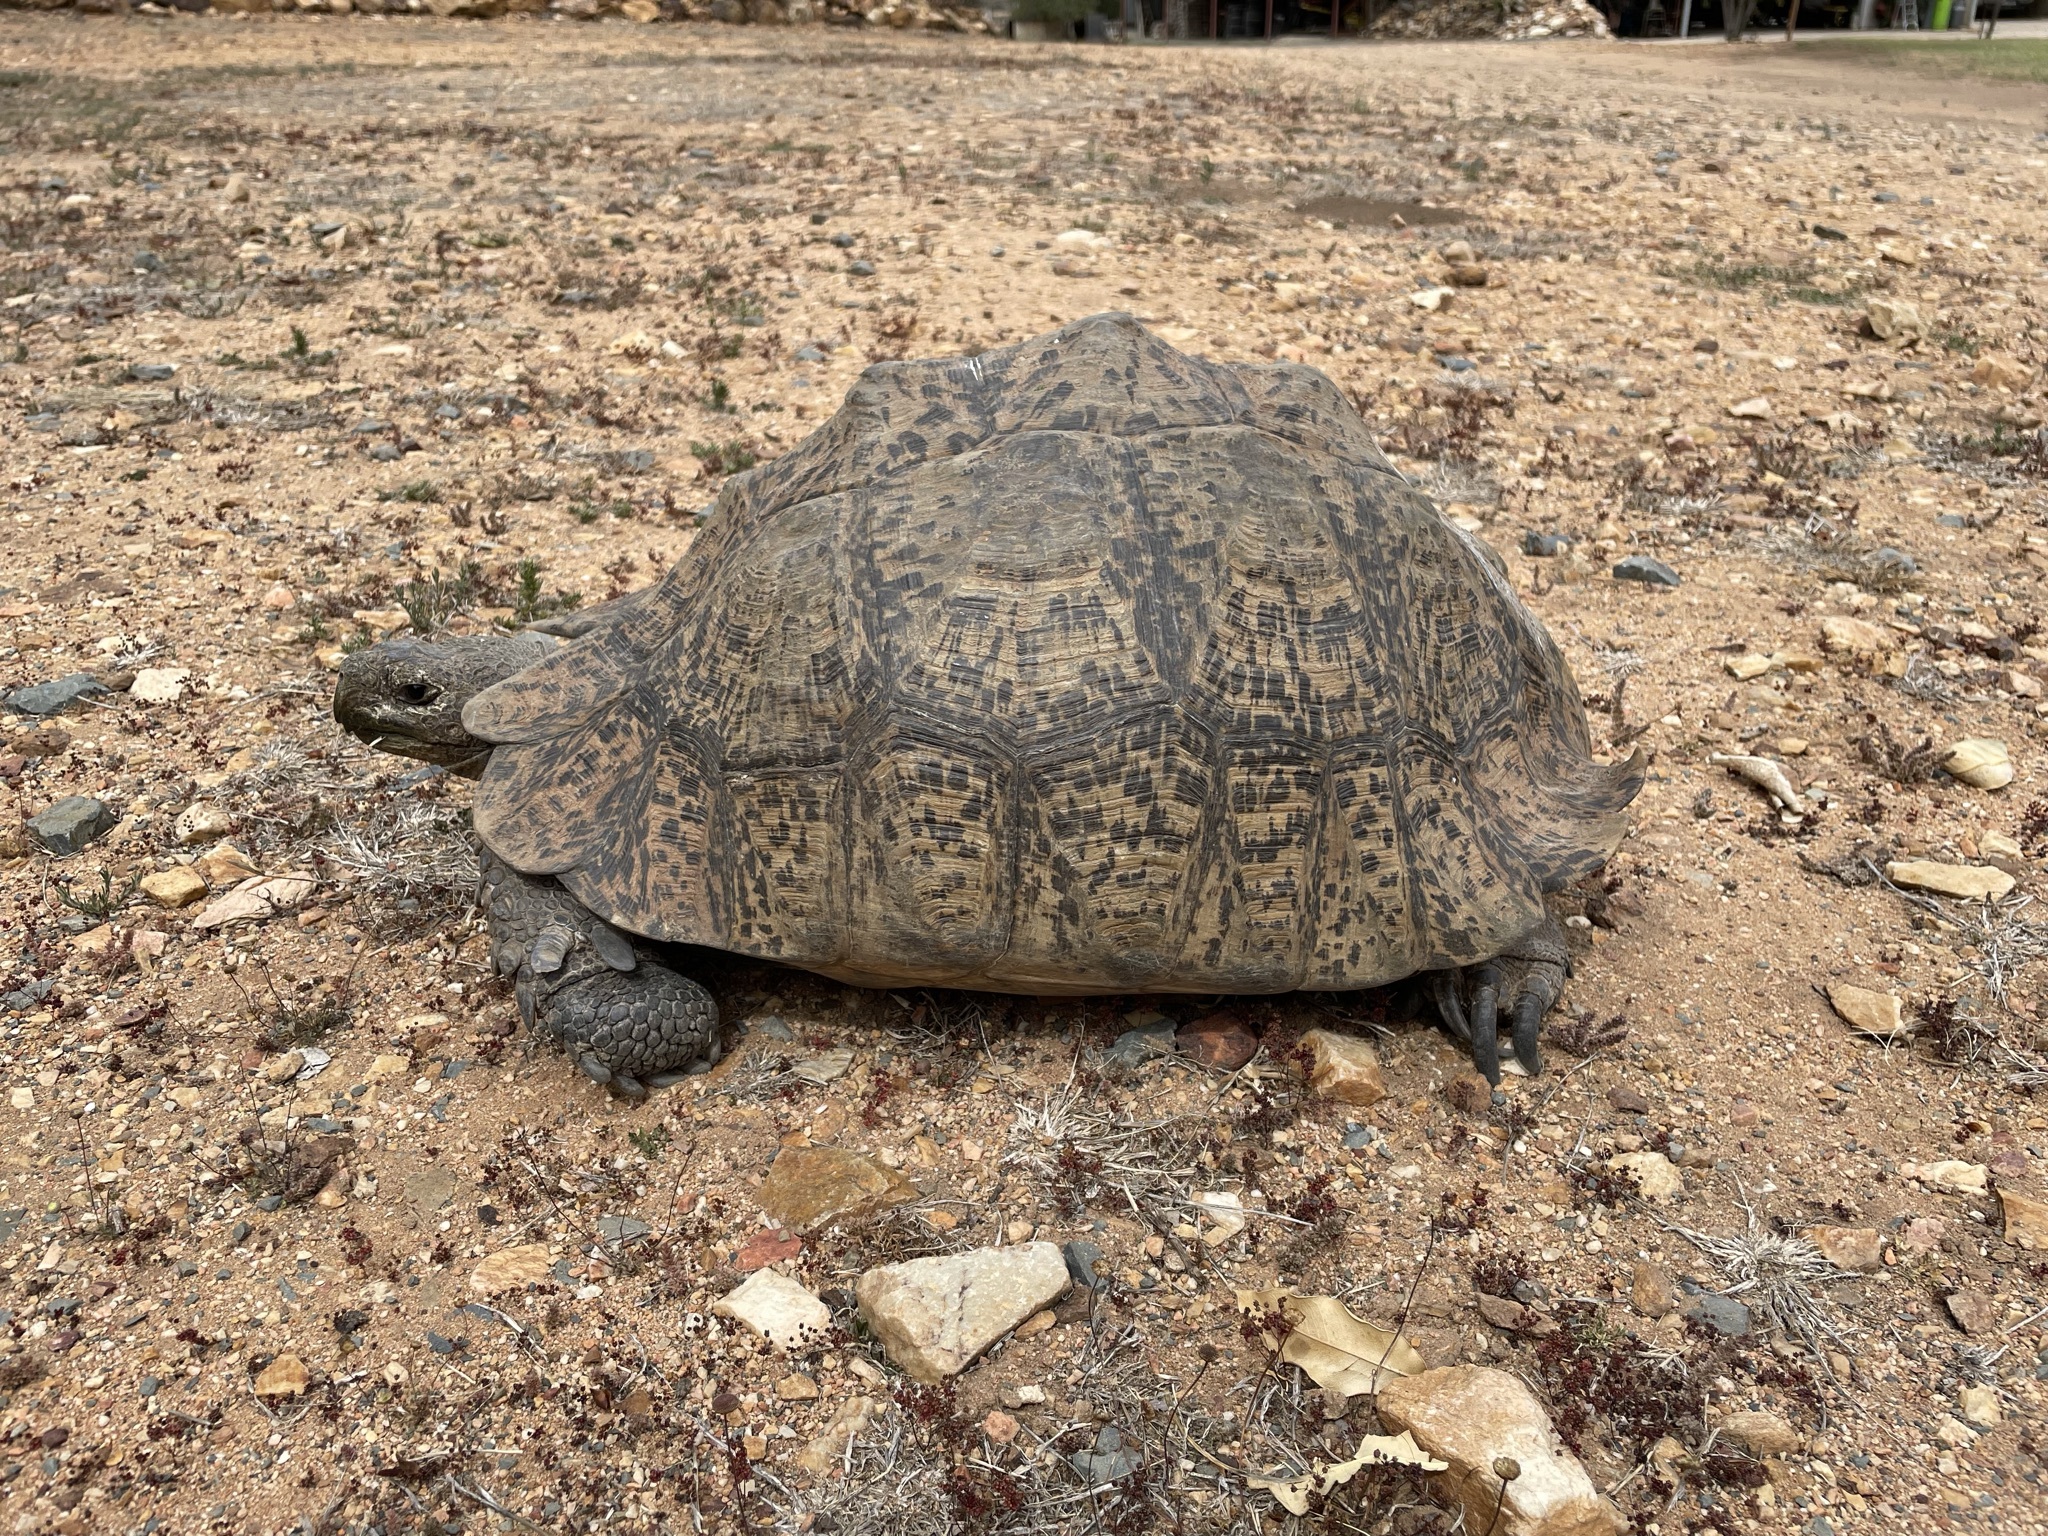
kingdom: Animalia
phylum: Chordata
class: Testudines
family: Testudinidae
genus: Stigmochelys
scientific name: Stigmochelys pardalis
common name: Leopard tortoise
